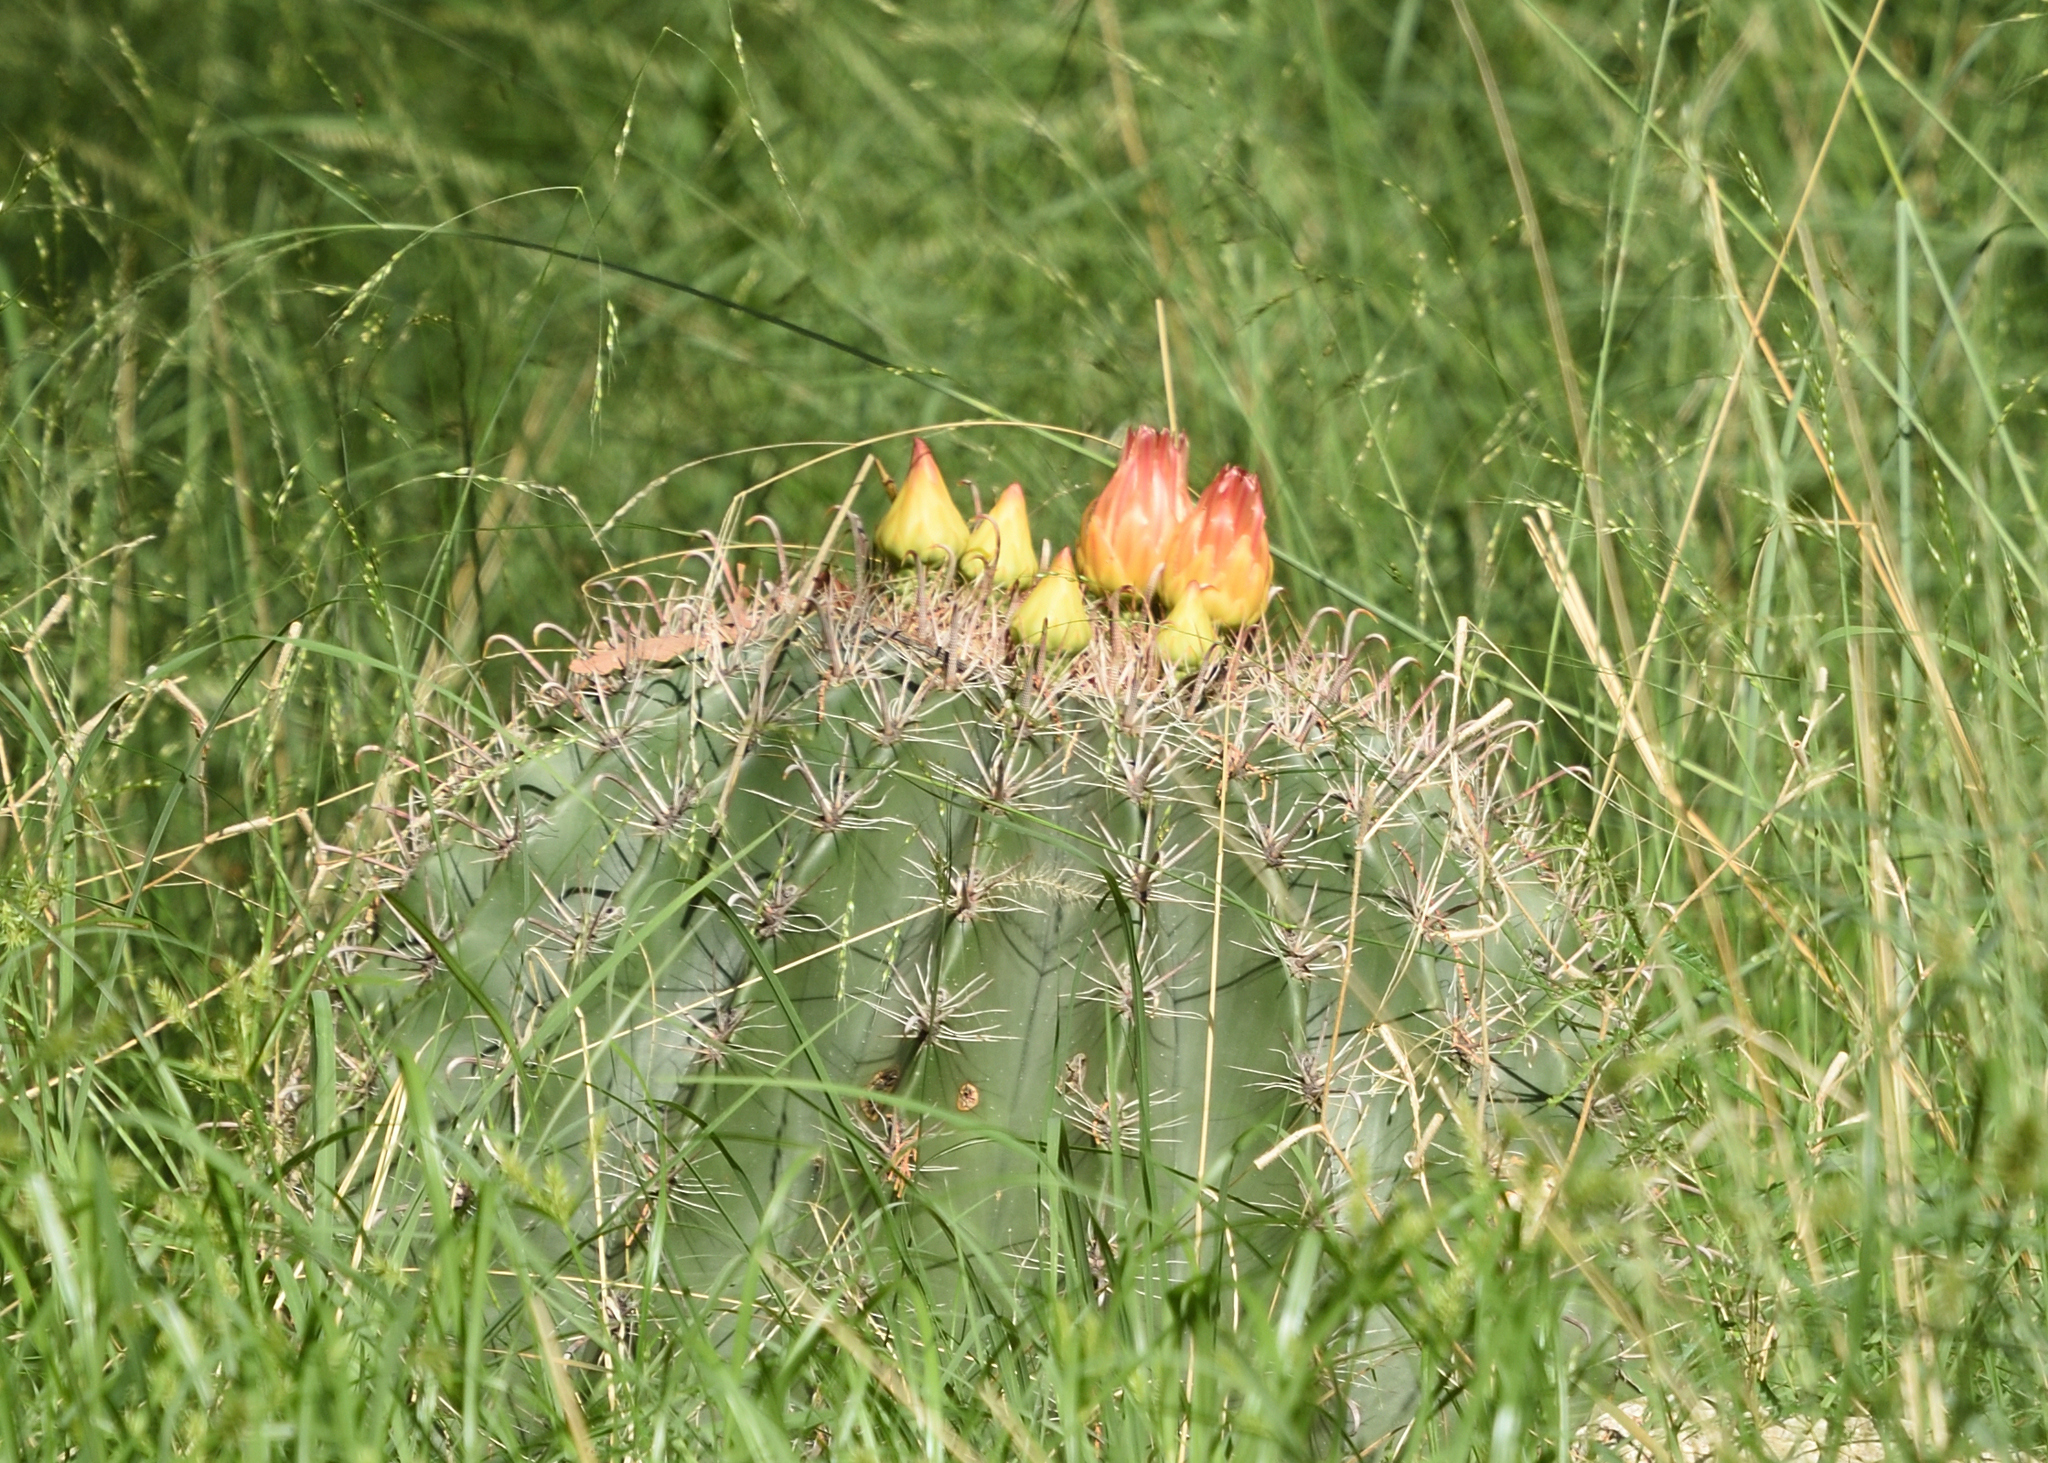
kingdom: Plantae
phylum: Tracheophyta
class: Magnoliopsida
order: Caryophyllales
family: Cactaceae
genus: Ferocactus
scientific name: Ferocactus wislizeni
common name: Candy barrel cactus
